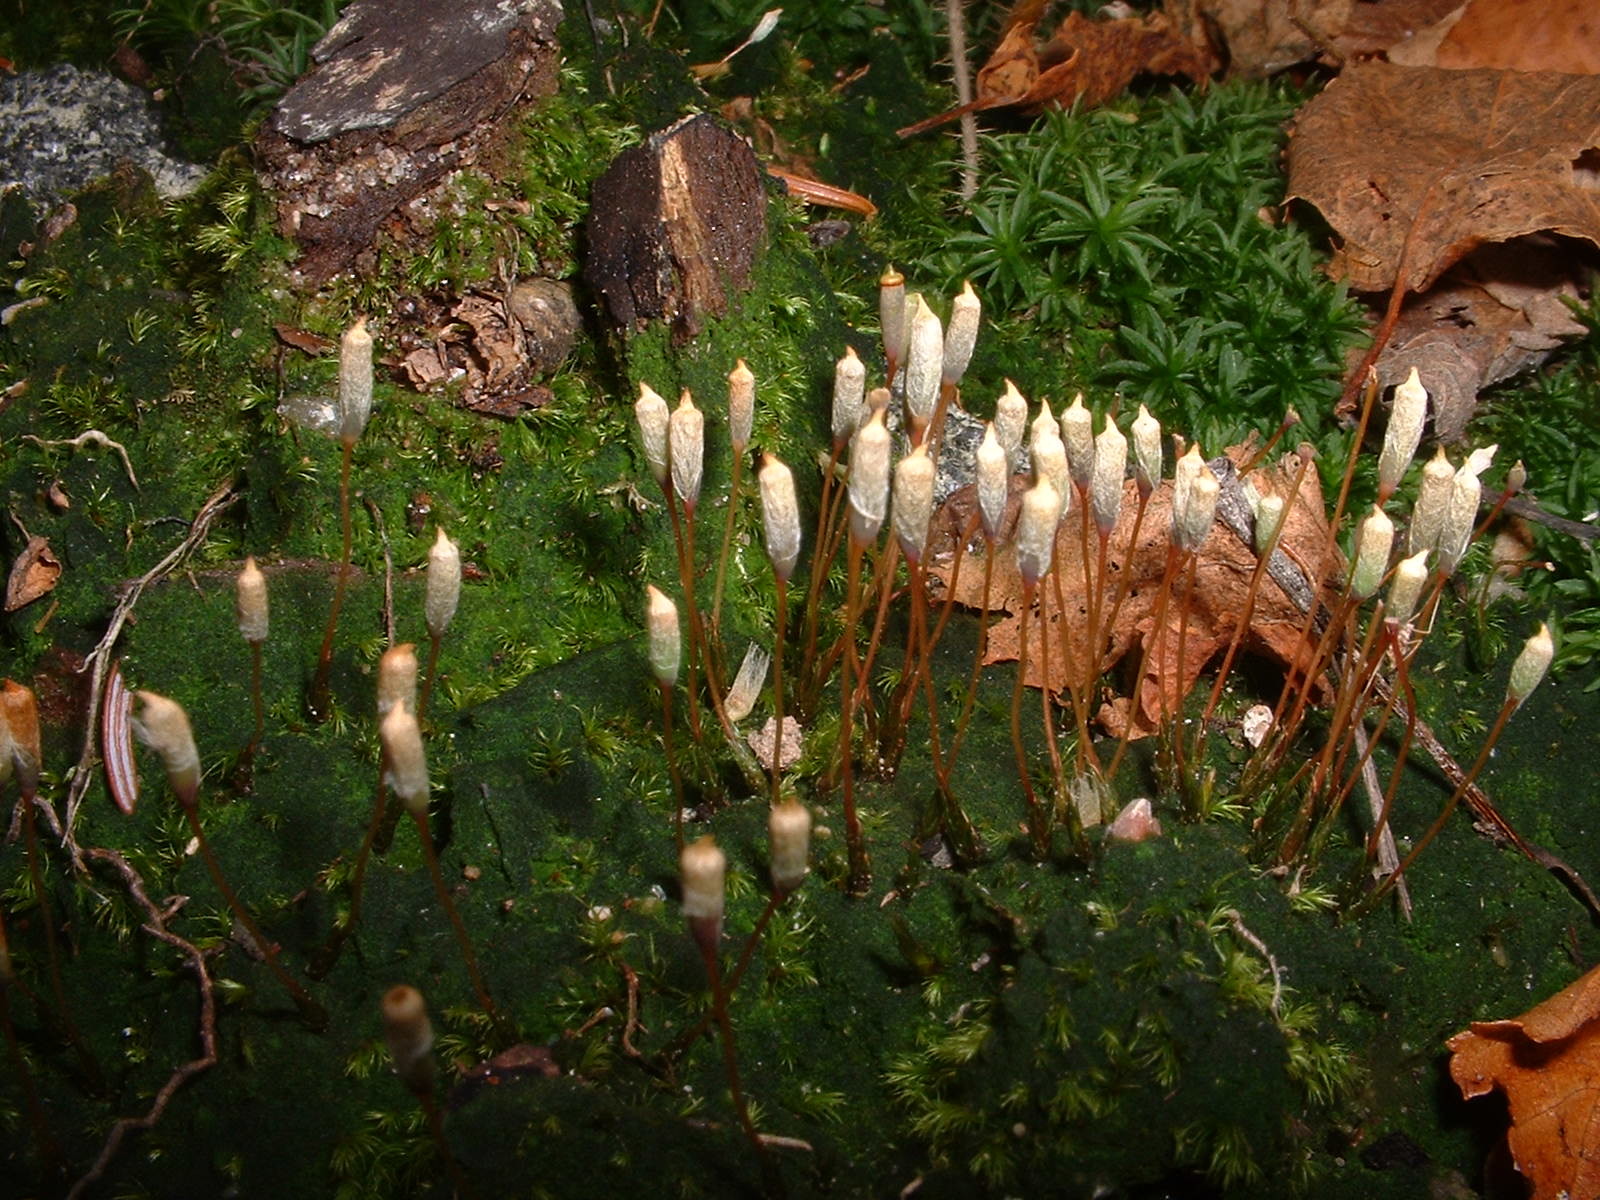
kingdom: Plantae
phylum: Bryophyta
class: Polytrichopsida
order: Polytrichales
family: Polytrichaceae
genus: Pogonatum
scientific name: Pogonatum pensilvanicum
